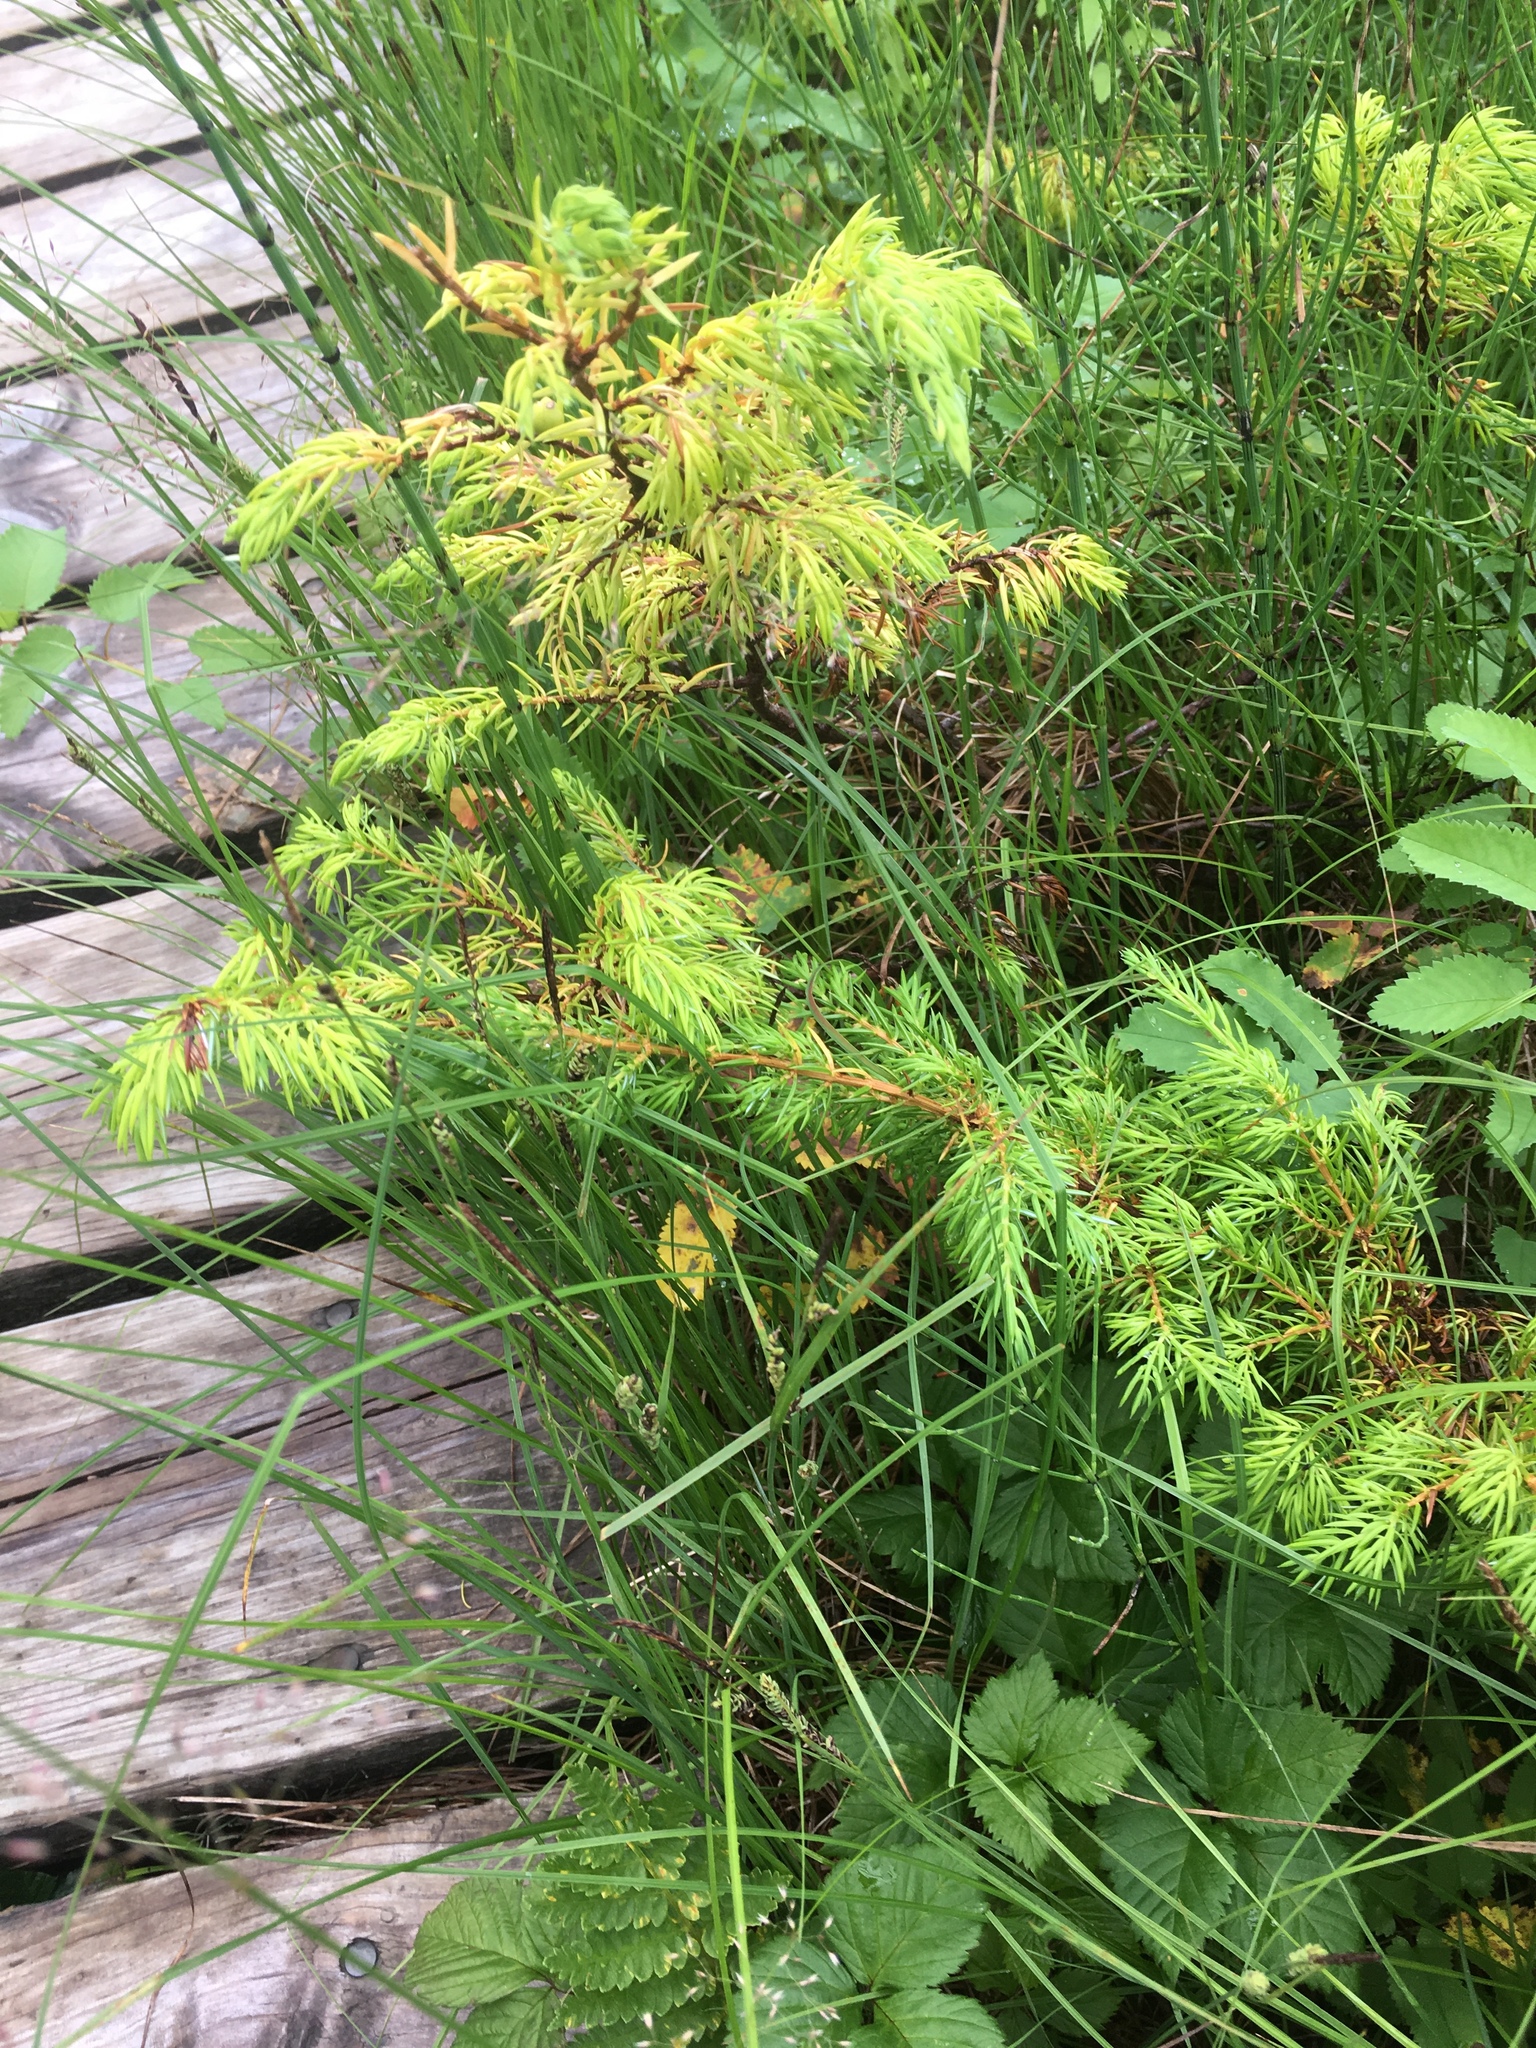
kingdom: Plantae
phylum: Tracheophyta
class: Pinopsida
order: Pinales
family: Cupressaceae
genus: Juniperus
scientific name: Juniperus communis
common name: Common juniper
